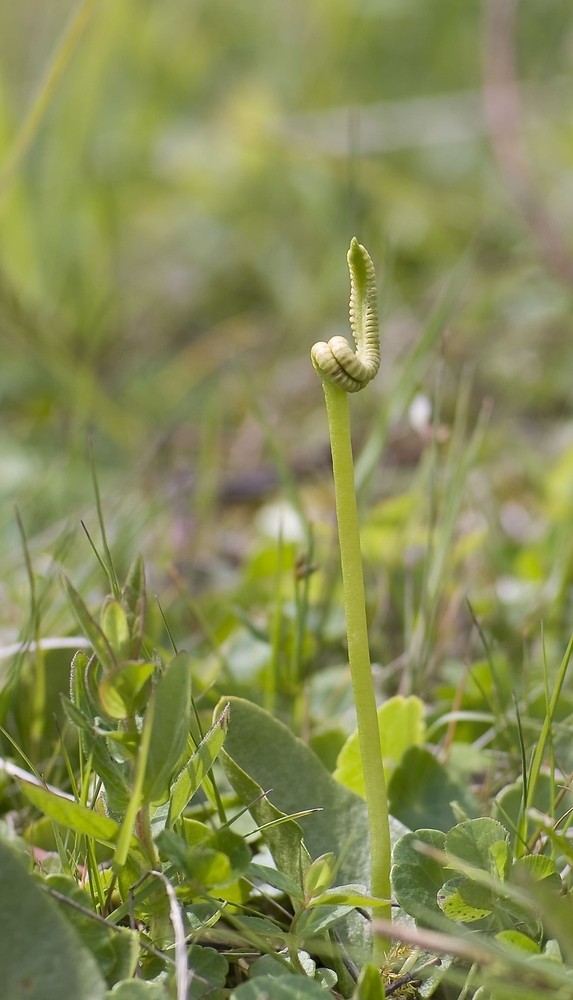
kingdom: Plantae
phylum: Tracheophyta
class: Polypodiopsida
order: Ophioglossales
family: Ophioglossaceae
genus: Ophioglossum
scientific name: Ophioglossum vulgatum
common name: Adder's-tongue
